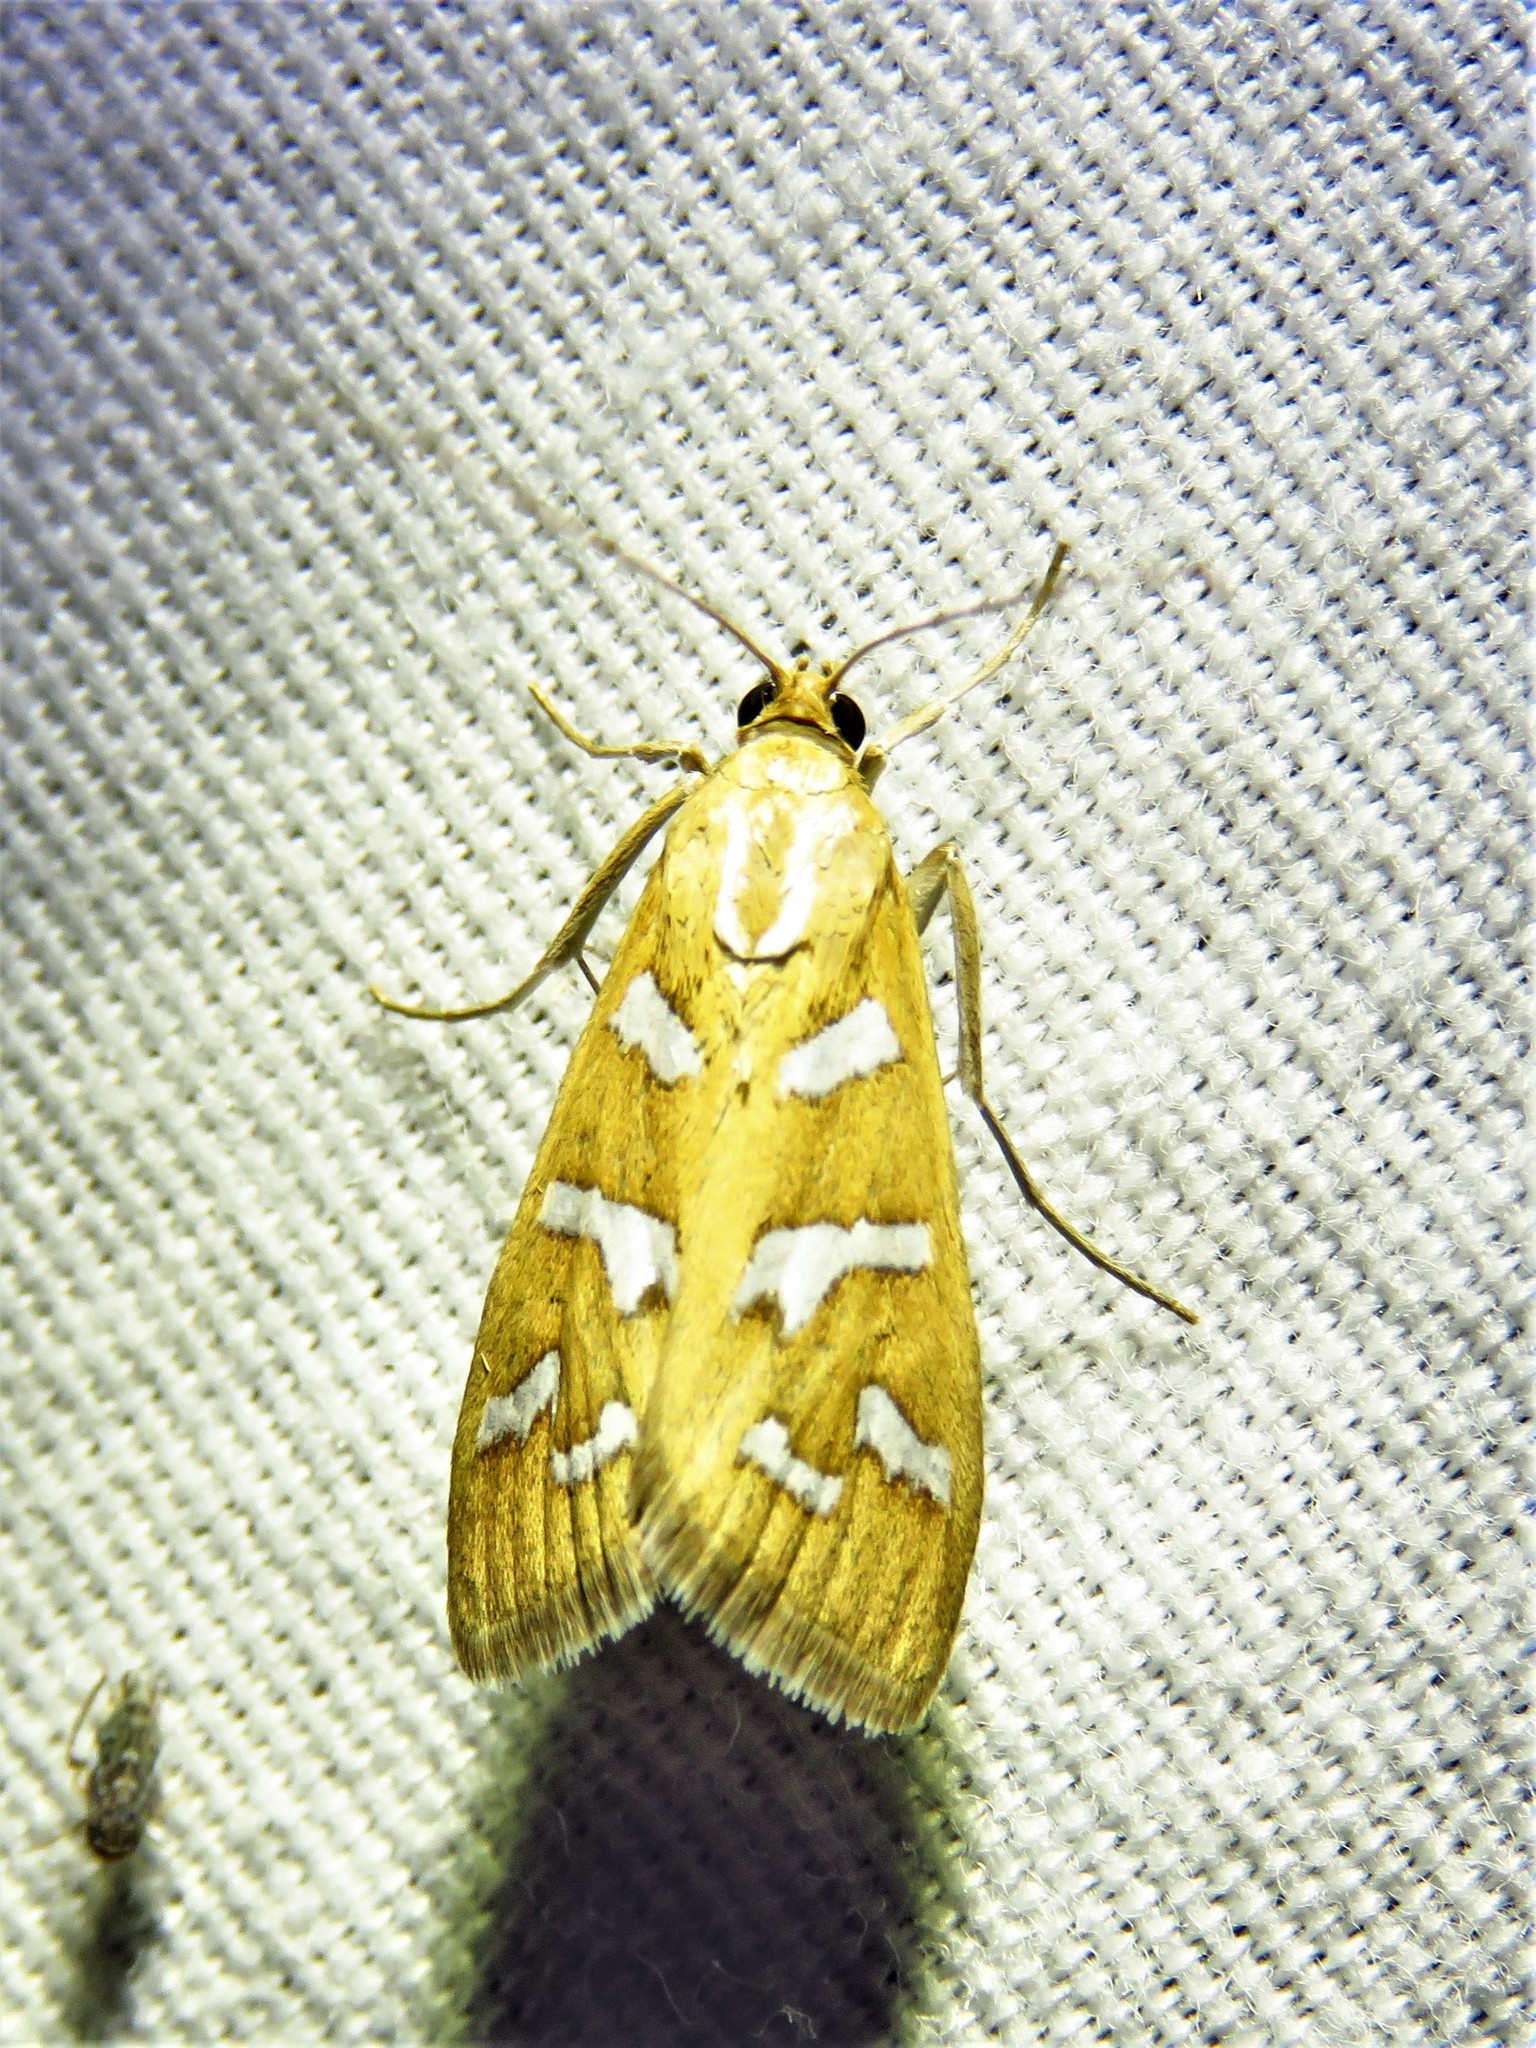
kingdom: Animalia
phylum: Arthropoda
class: Insecta
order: Lepidoptera
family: Crambidae
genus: Diastictis
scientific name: Diastictis fracturalis
